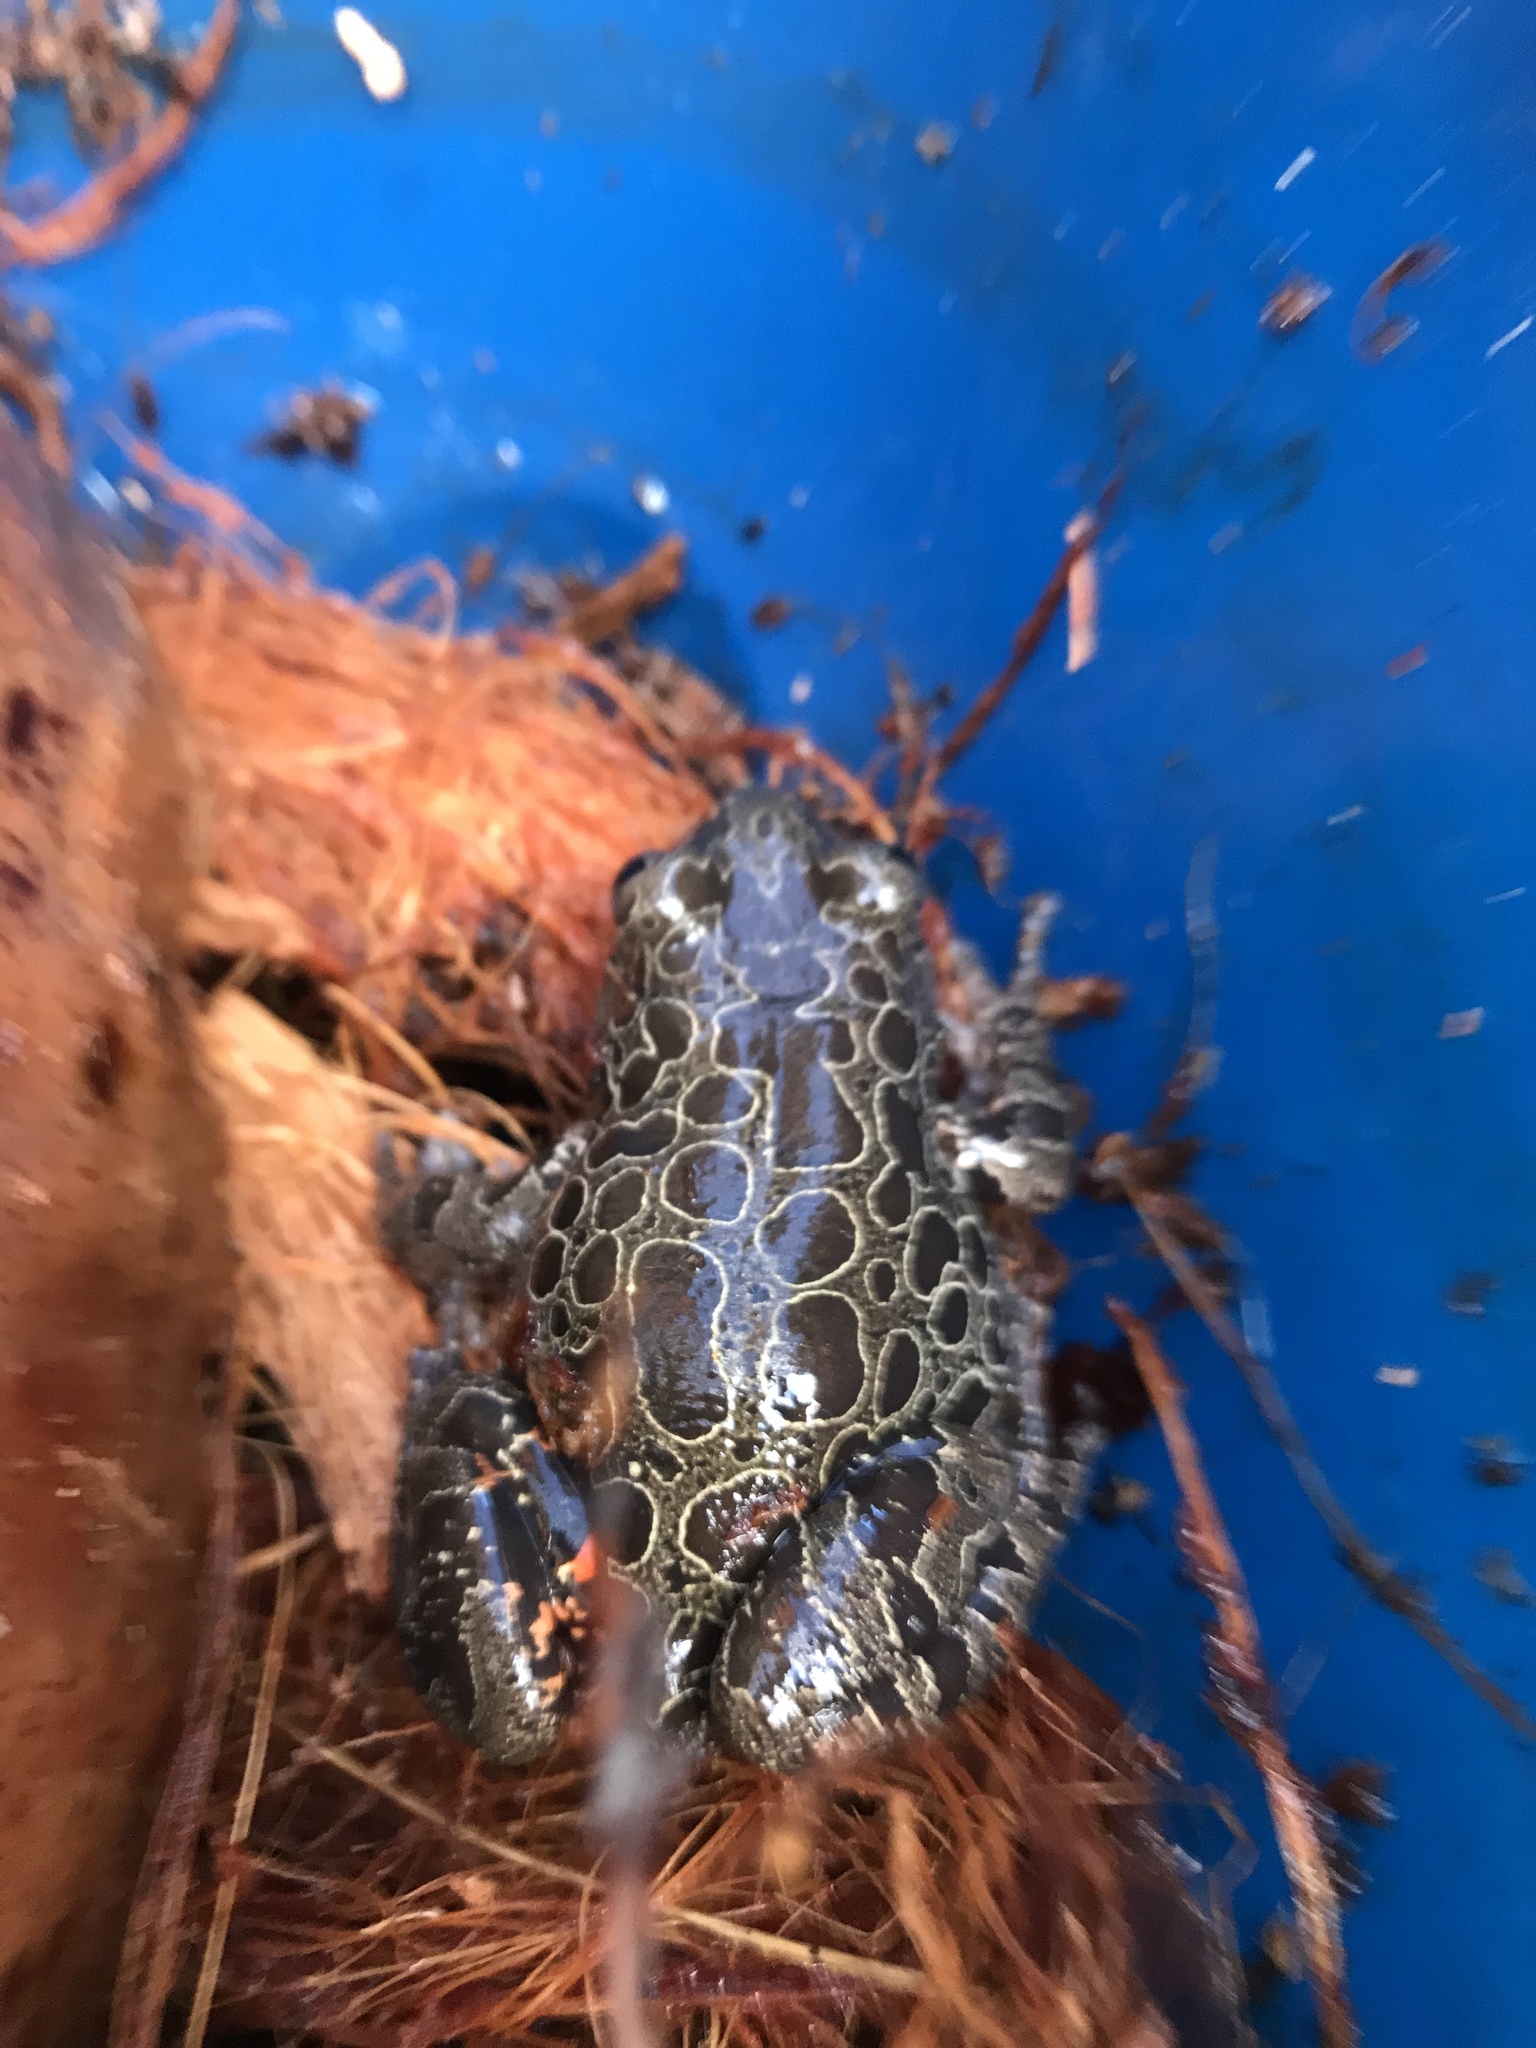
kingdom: Animalia
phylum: Chordata
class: Amphibia
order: Anura
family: Hyperoliidae
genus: Phlyctimantis
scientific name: Phlyctimantis maculatus
